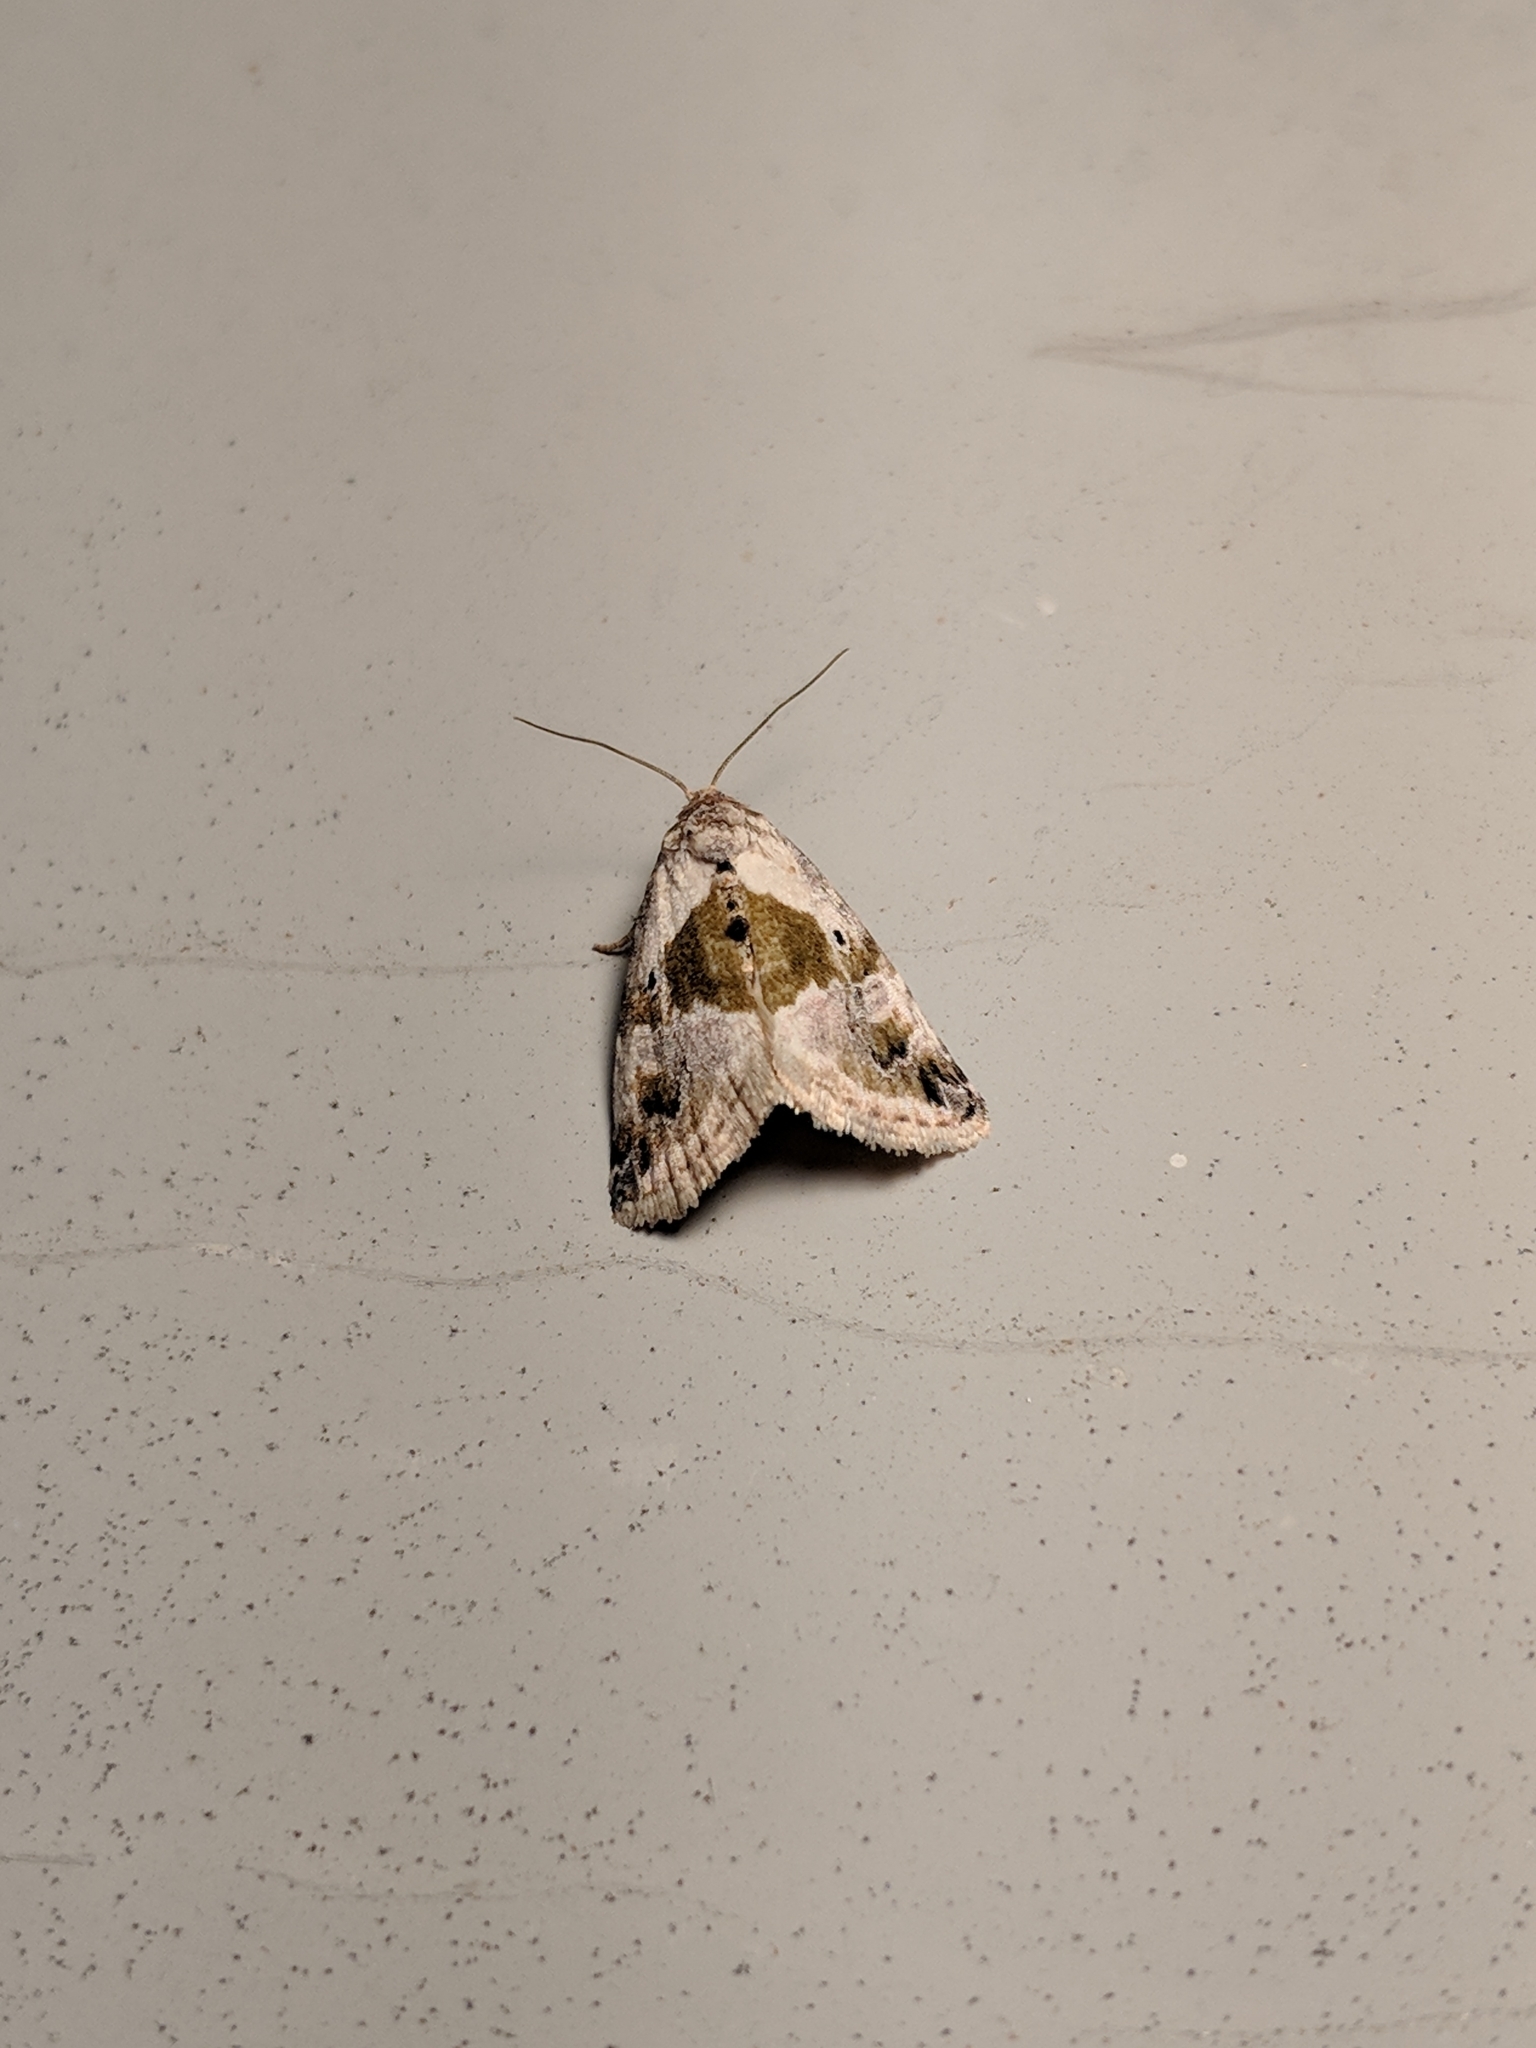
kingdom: Animalia
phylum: Arthropoda
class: Insecta
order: Lepidoptera
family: Noctuidae
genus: Maliattha
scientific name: Maliattha synochitis
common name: Black-dotted glyph
